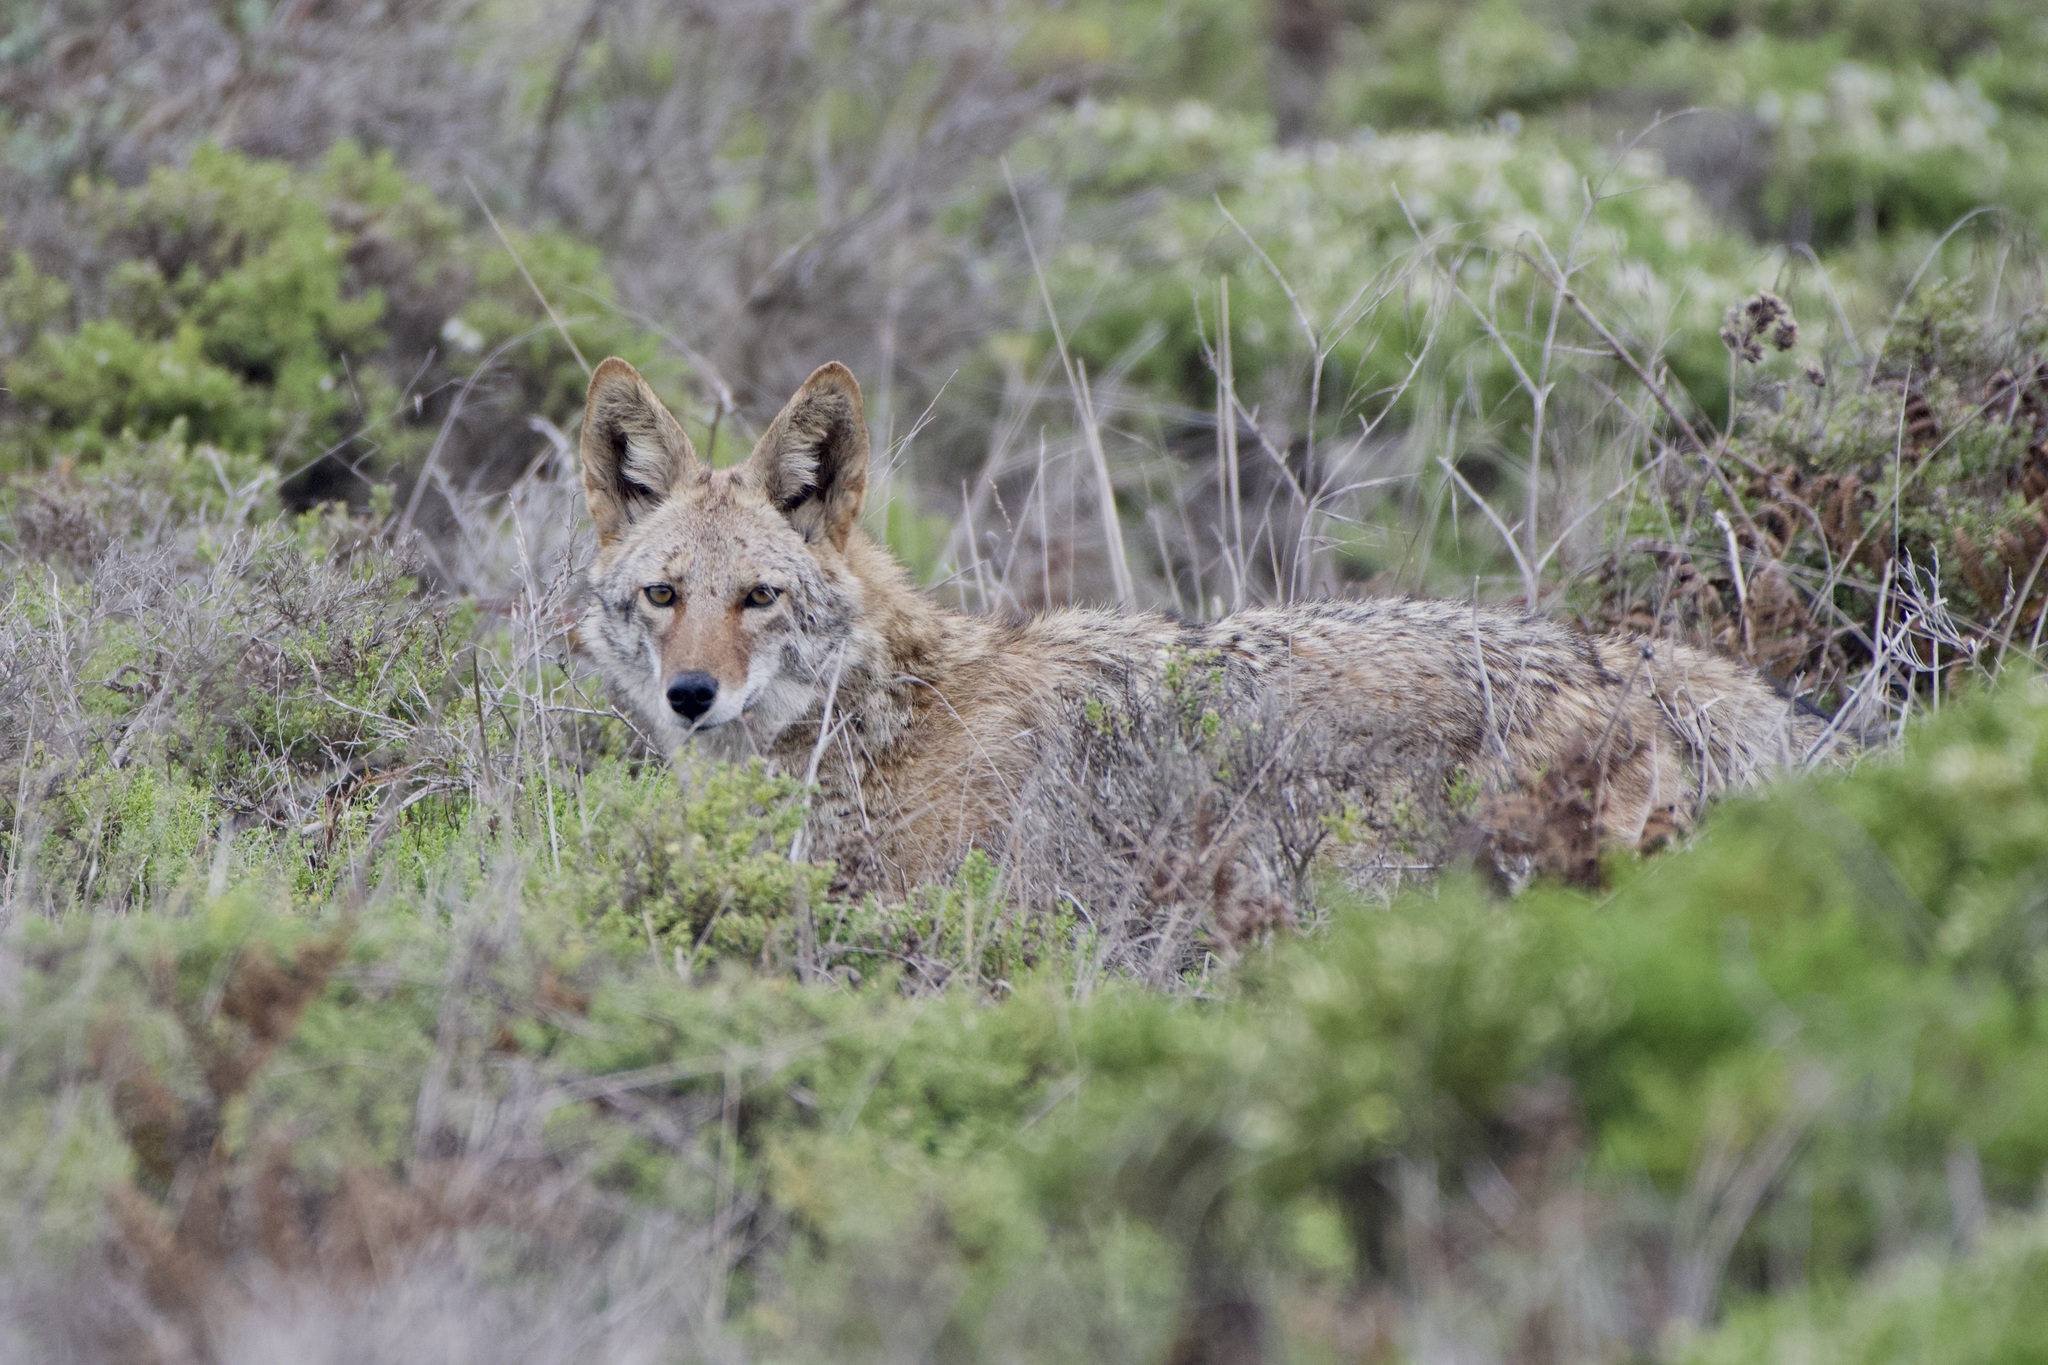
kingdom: Animalia
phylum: Chordata
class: Mammalia
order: Carnivora
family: Canidae
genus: Canis
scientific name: Canis latrans
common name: Coyote
